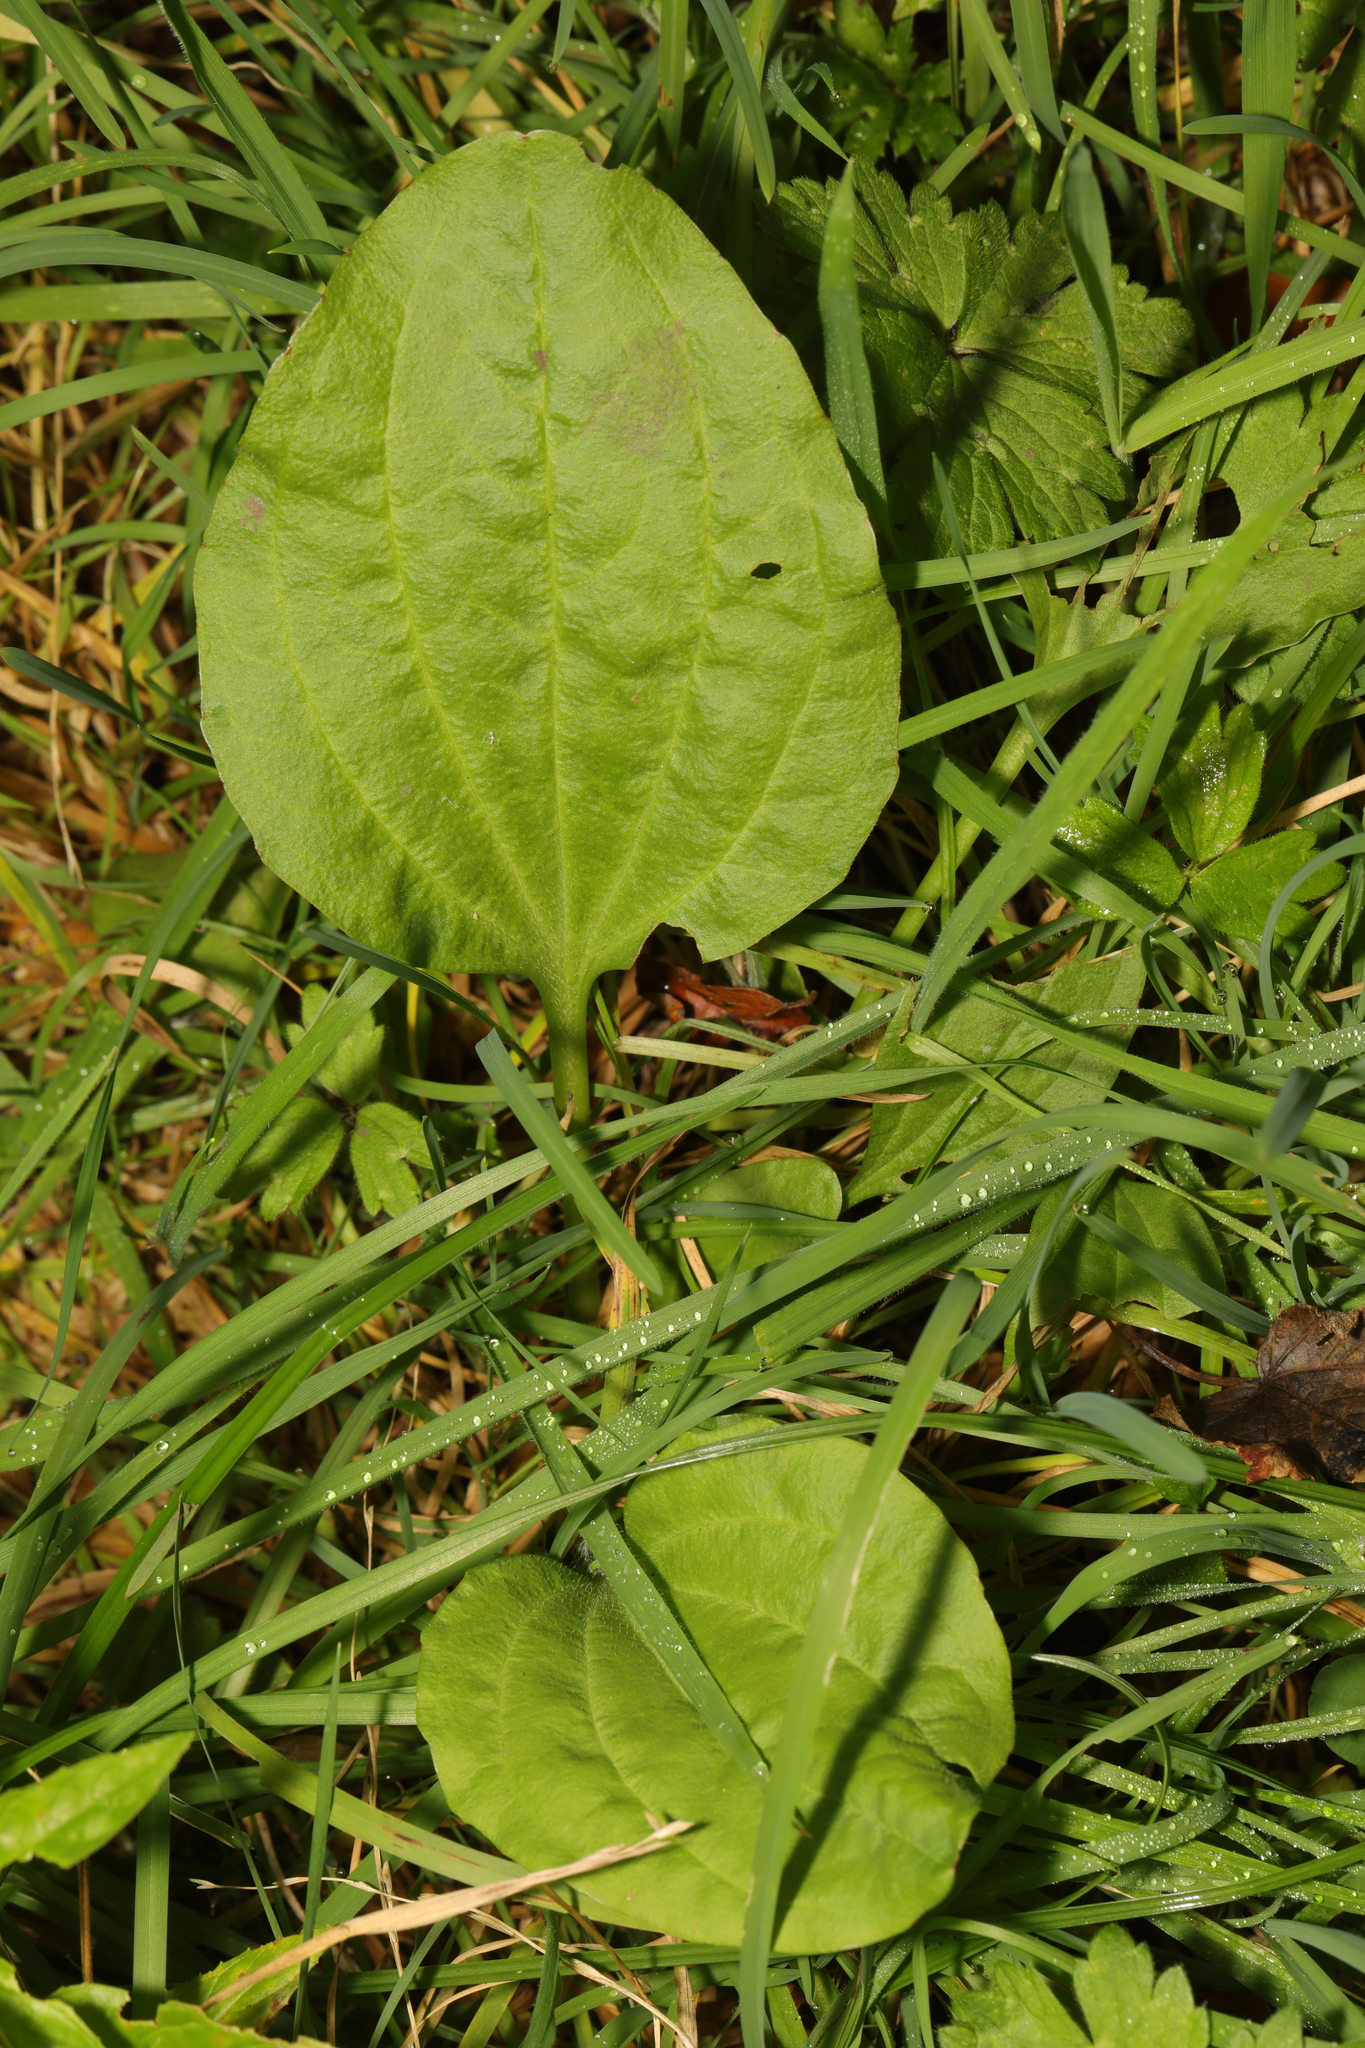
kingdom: Plantae
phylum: Tracheophyta
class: Magnoliopsida
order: Lamiales
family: Plantaginaceae
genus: Plantago
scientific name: Plantago major
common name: Common plantain
